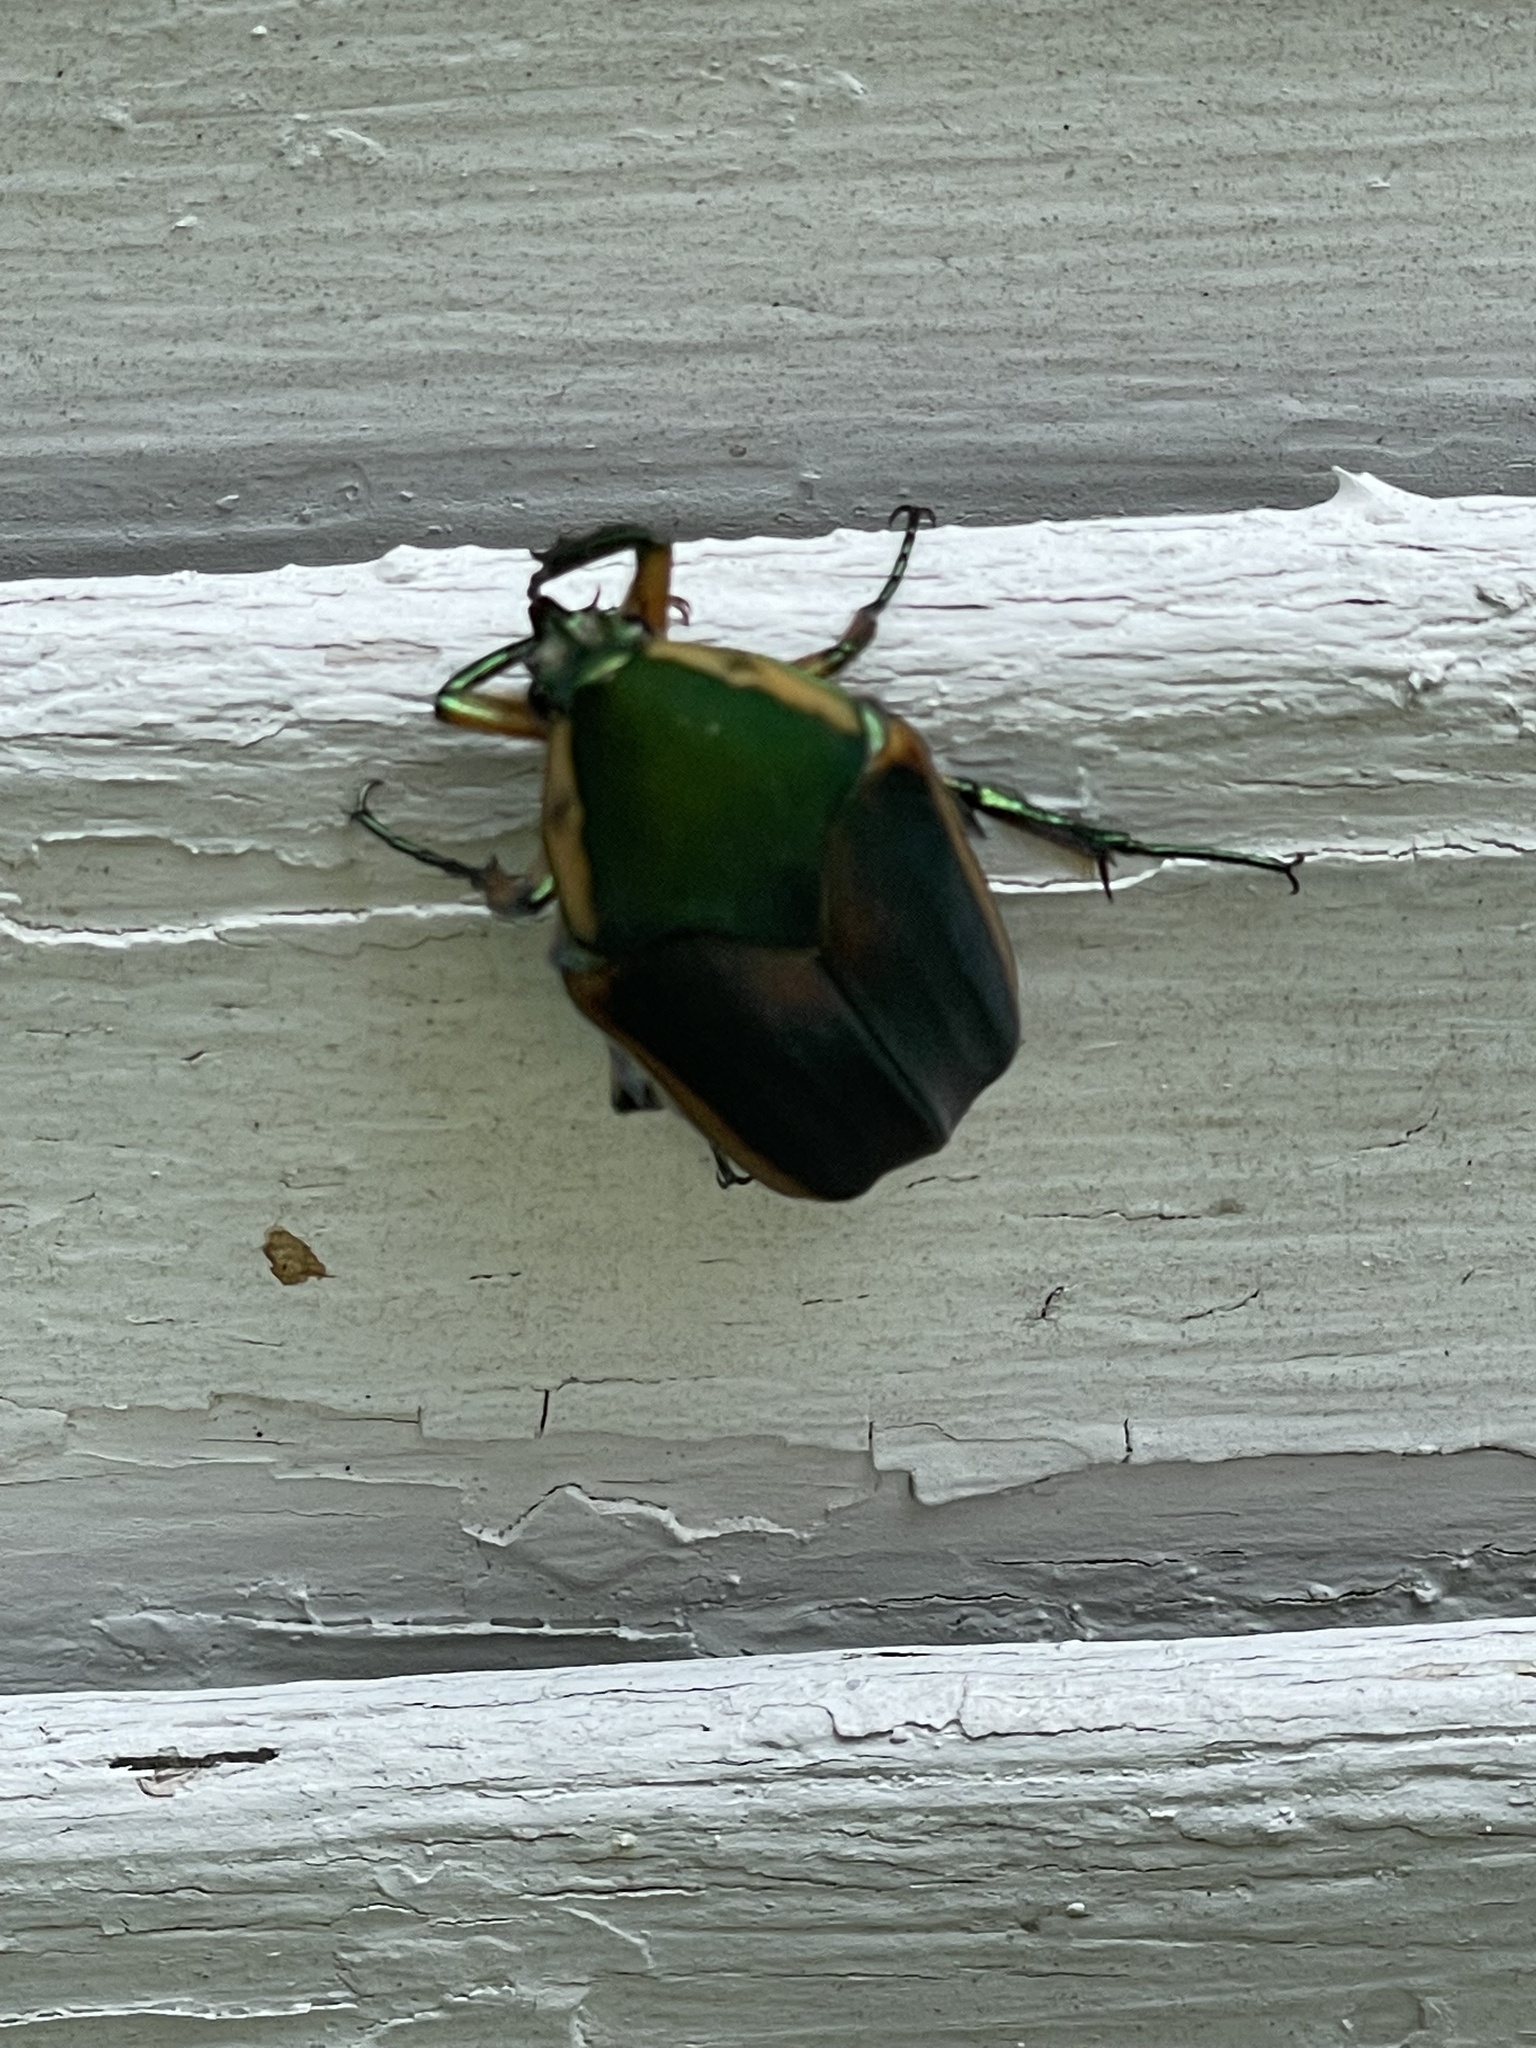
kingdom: Animalia
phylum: Arthropoda
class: Insecta
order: Coleoptera
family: Scarabaeidae
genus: Cotinis
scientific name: Cotinis nitida
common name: Common green june beetle
